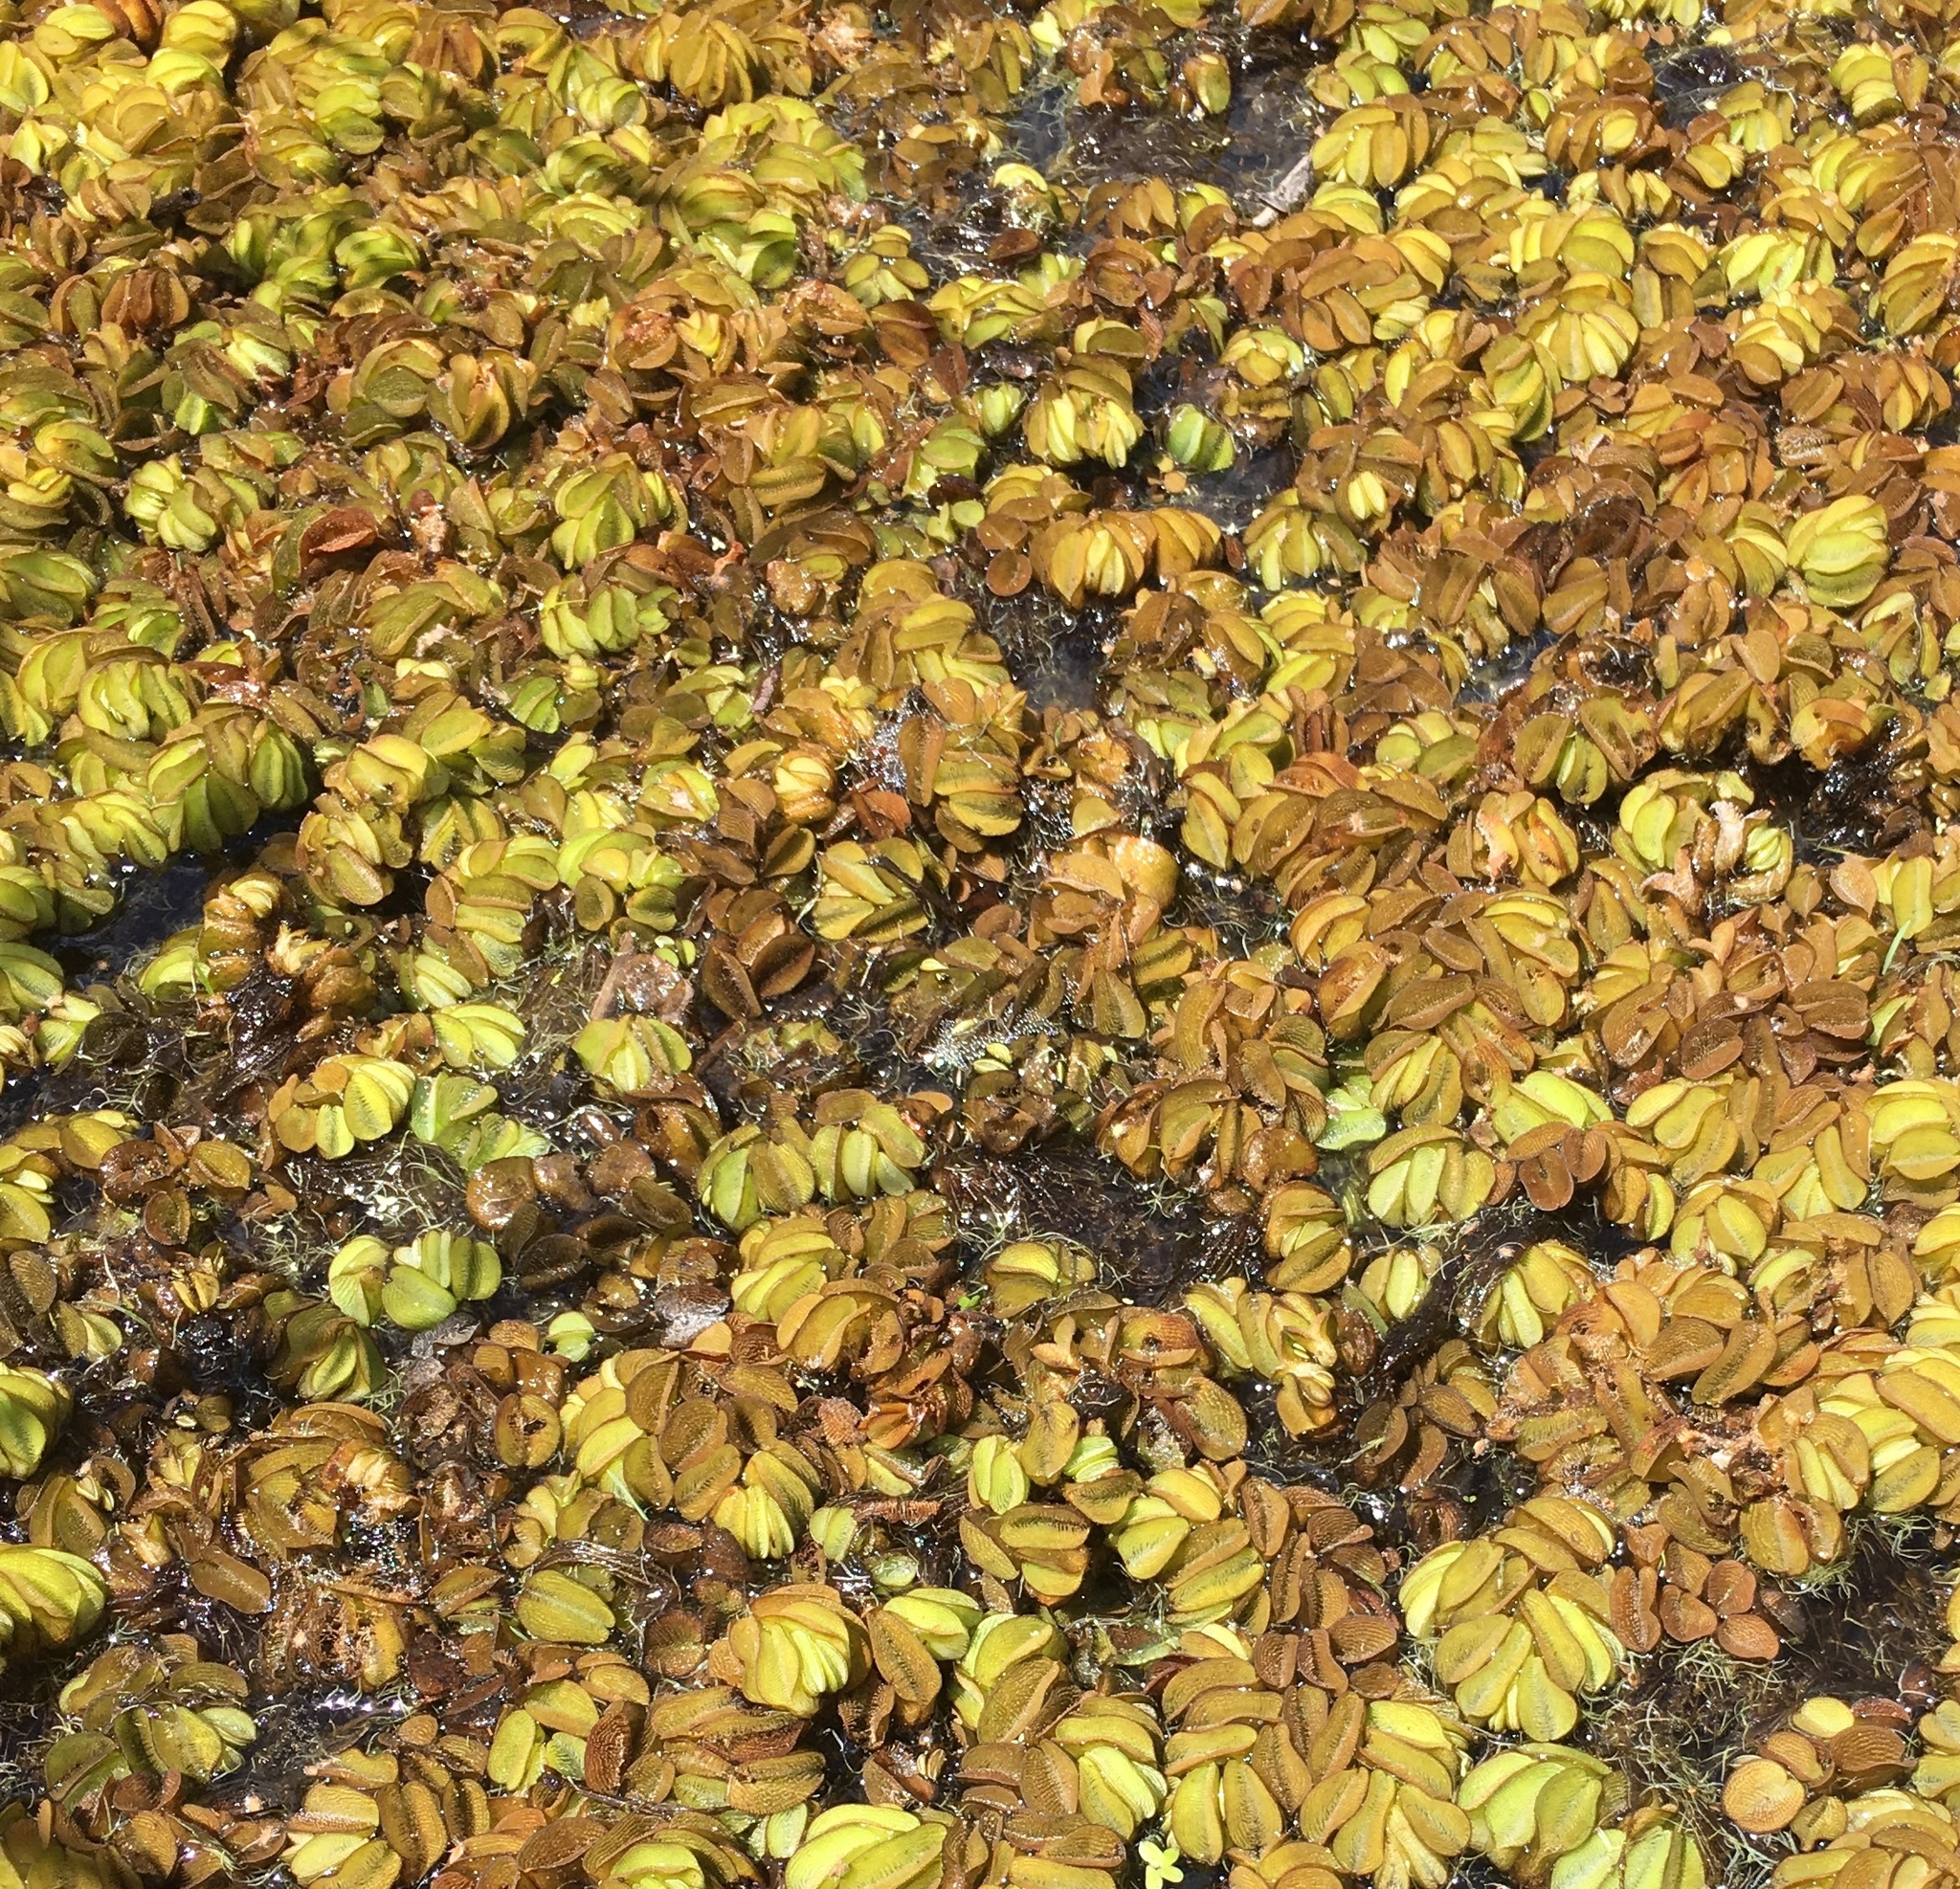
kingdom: Plantae
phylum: Tracheophyta
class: Polypodiopsida
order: Salviniales
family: Salviniaceae
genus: Salvinia
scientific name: Salvinia minima
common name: Water spangles
